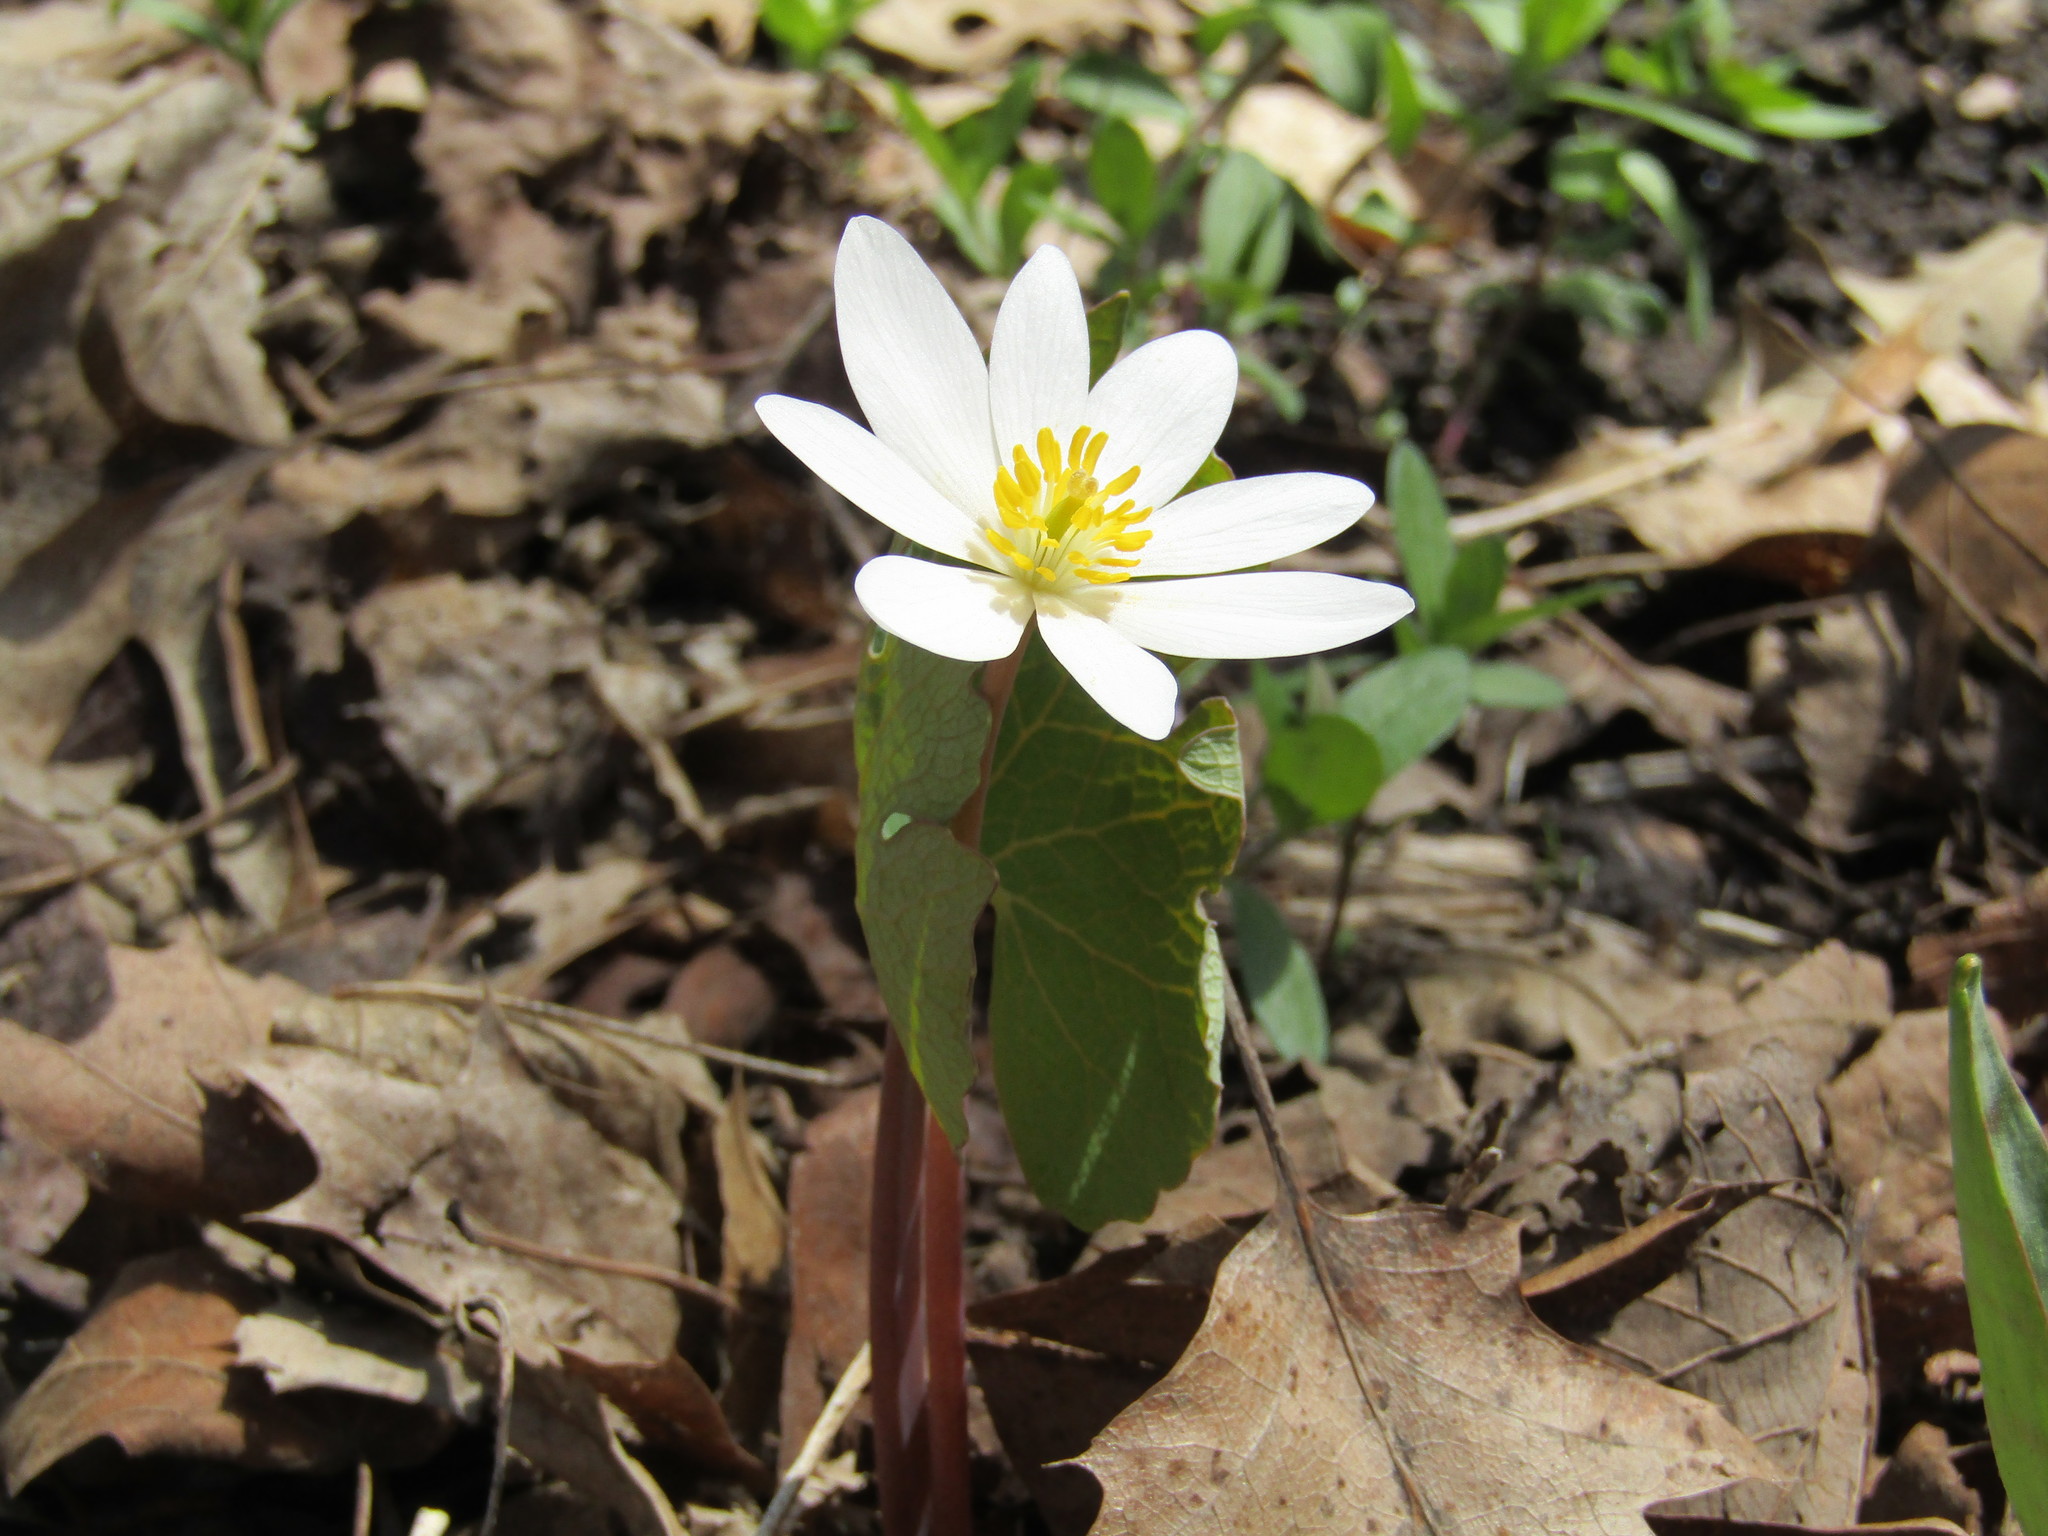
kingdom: Plantae
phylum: Tracheophyta
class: Magnoliopsida
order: Ranunculales
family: Papaveraceae
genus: Sanguinaria
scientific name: Sanguinaria canadensis
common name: Bloodroot
